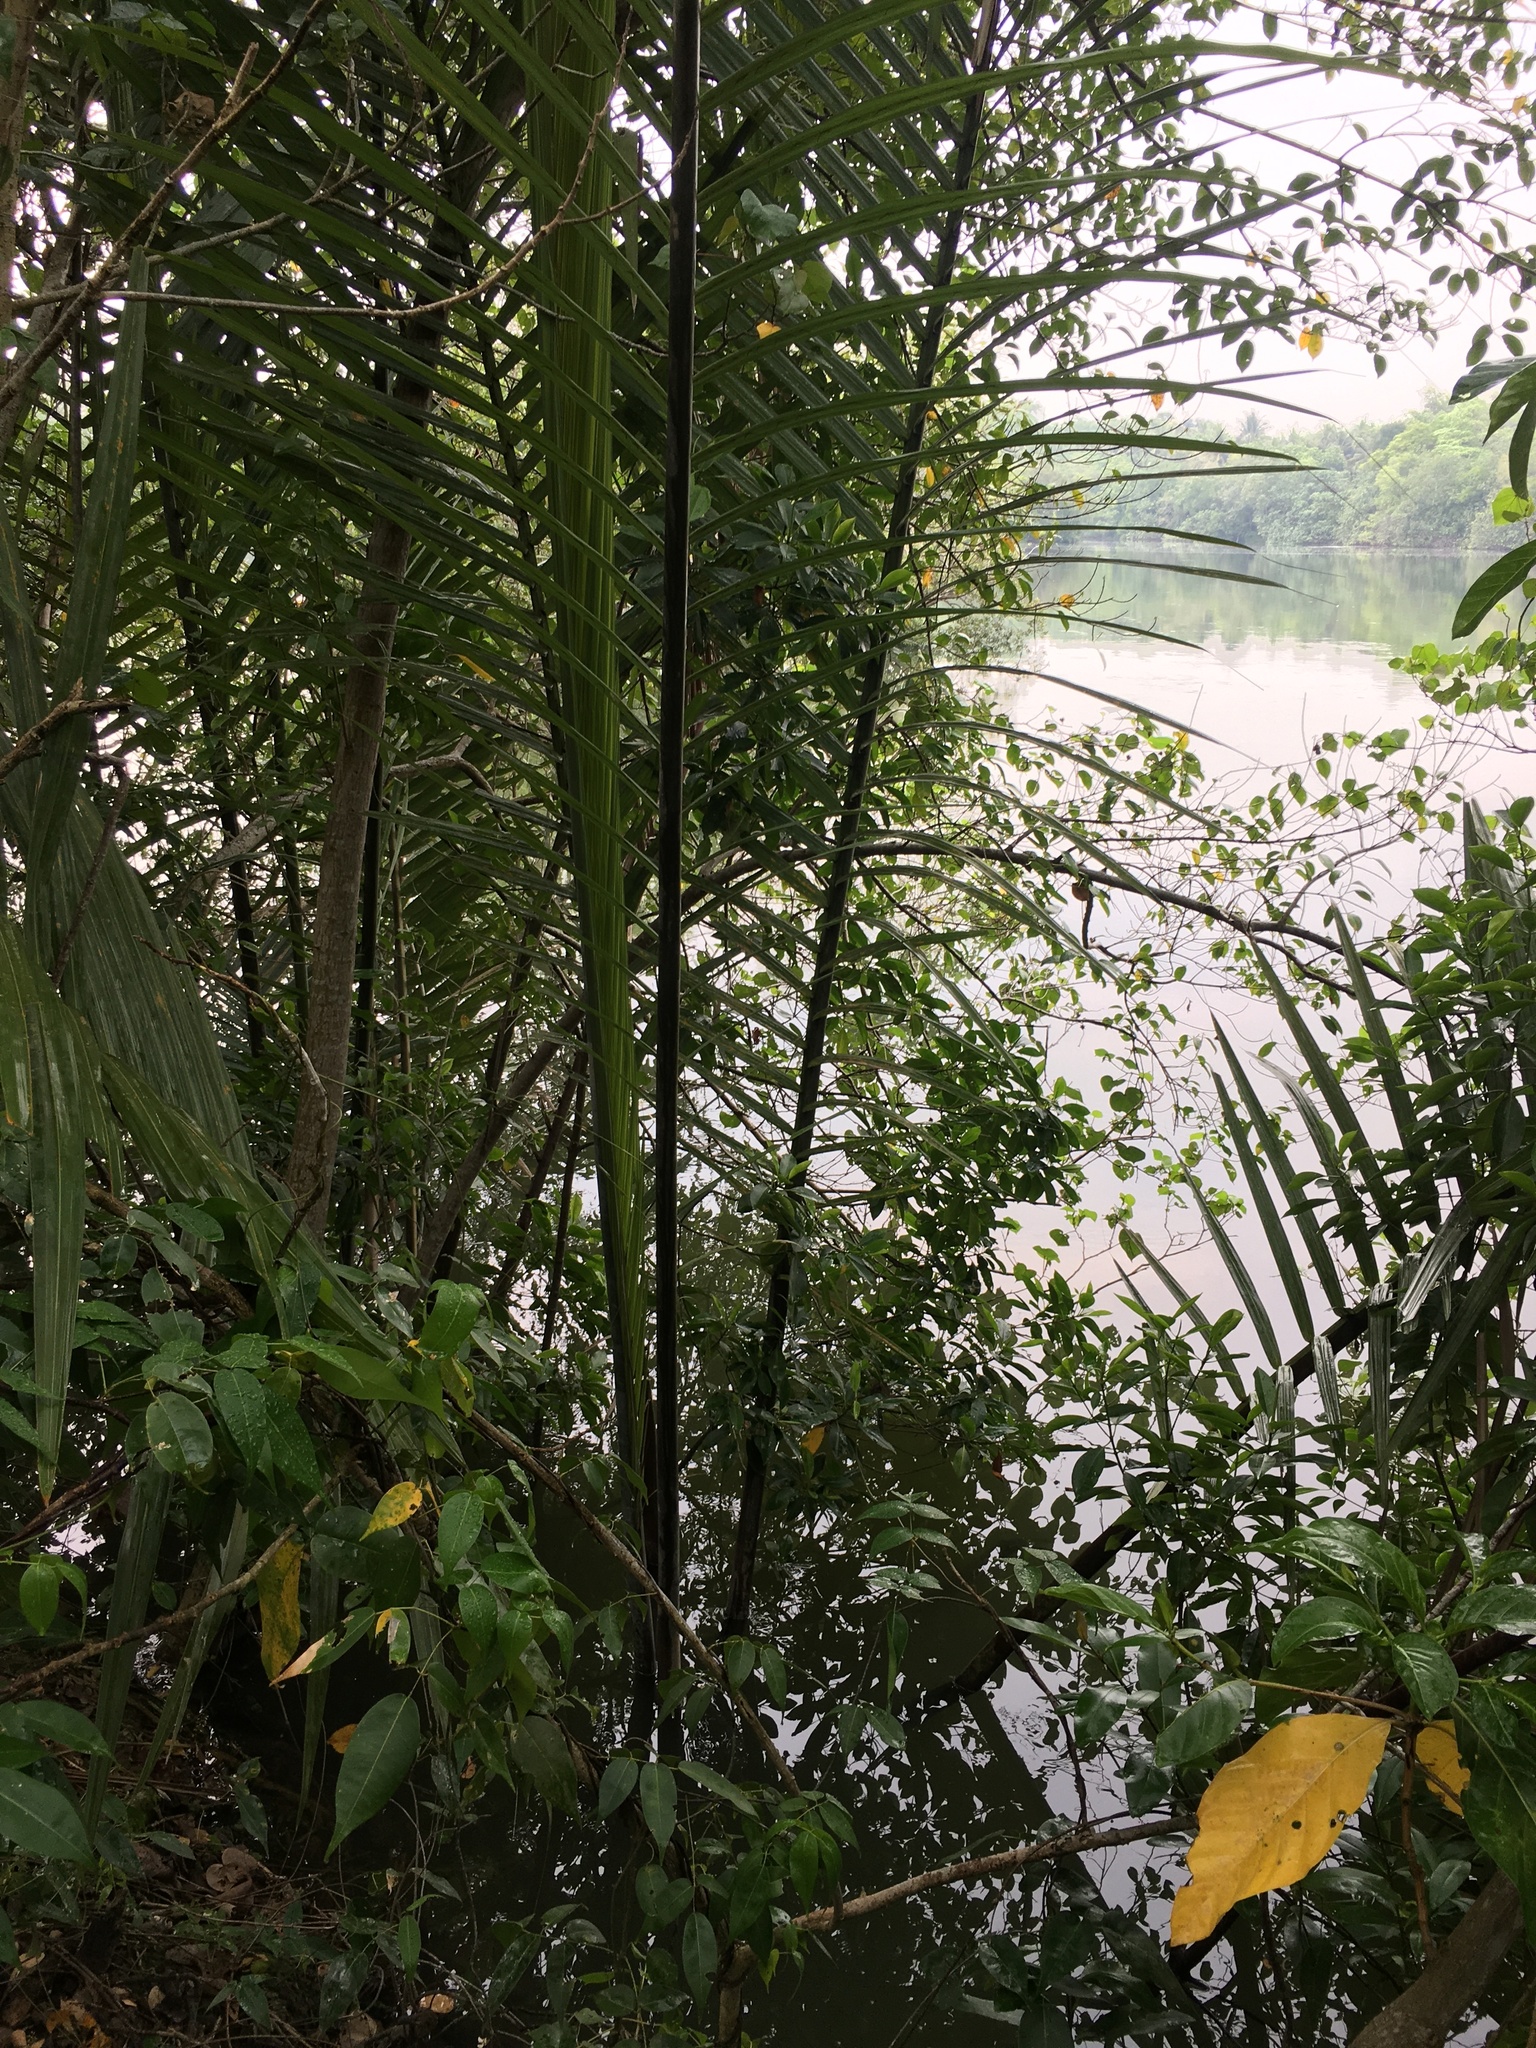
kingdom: Plantae
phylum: Tracheophyta
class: Liliopsida
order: Arecales
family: Arecaceae
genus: Nypa
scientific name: Nypa fruticans
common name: Mangrove palm
